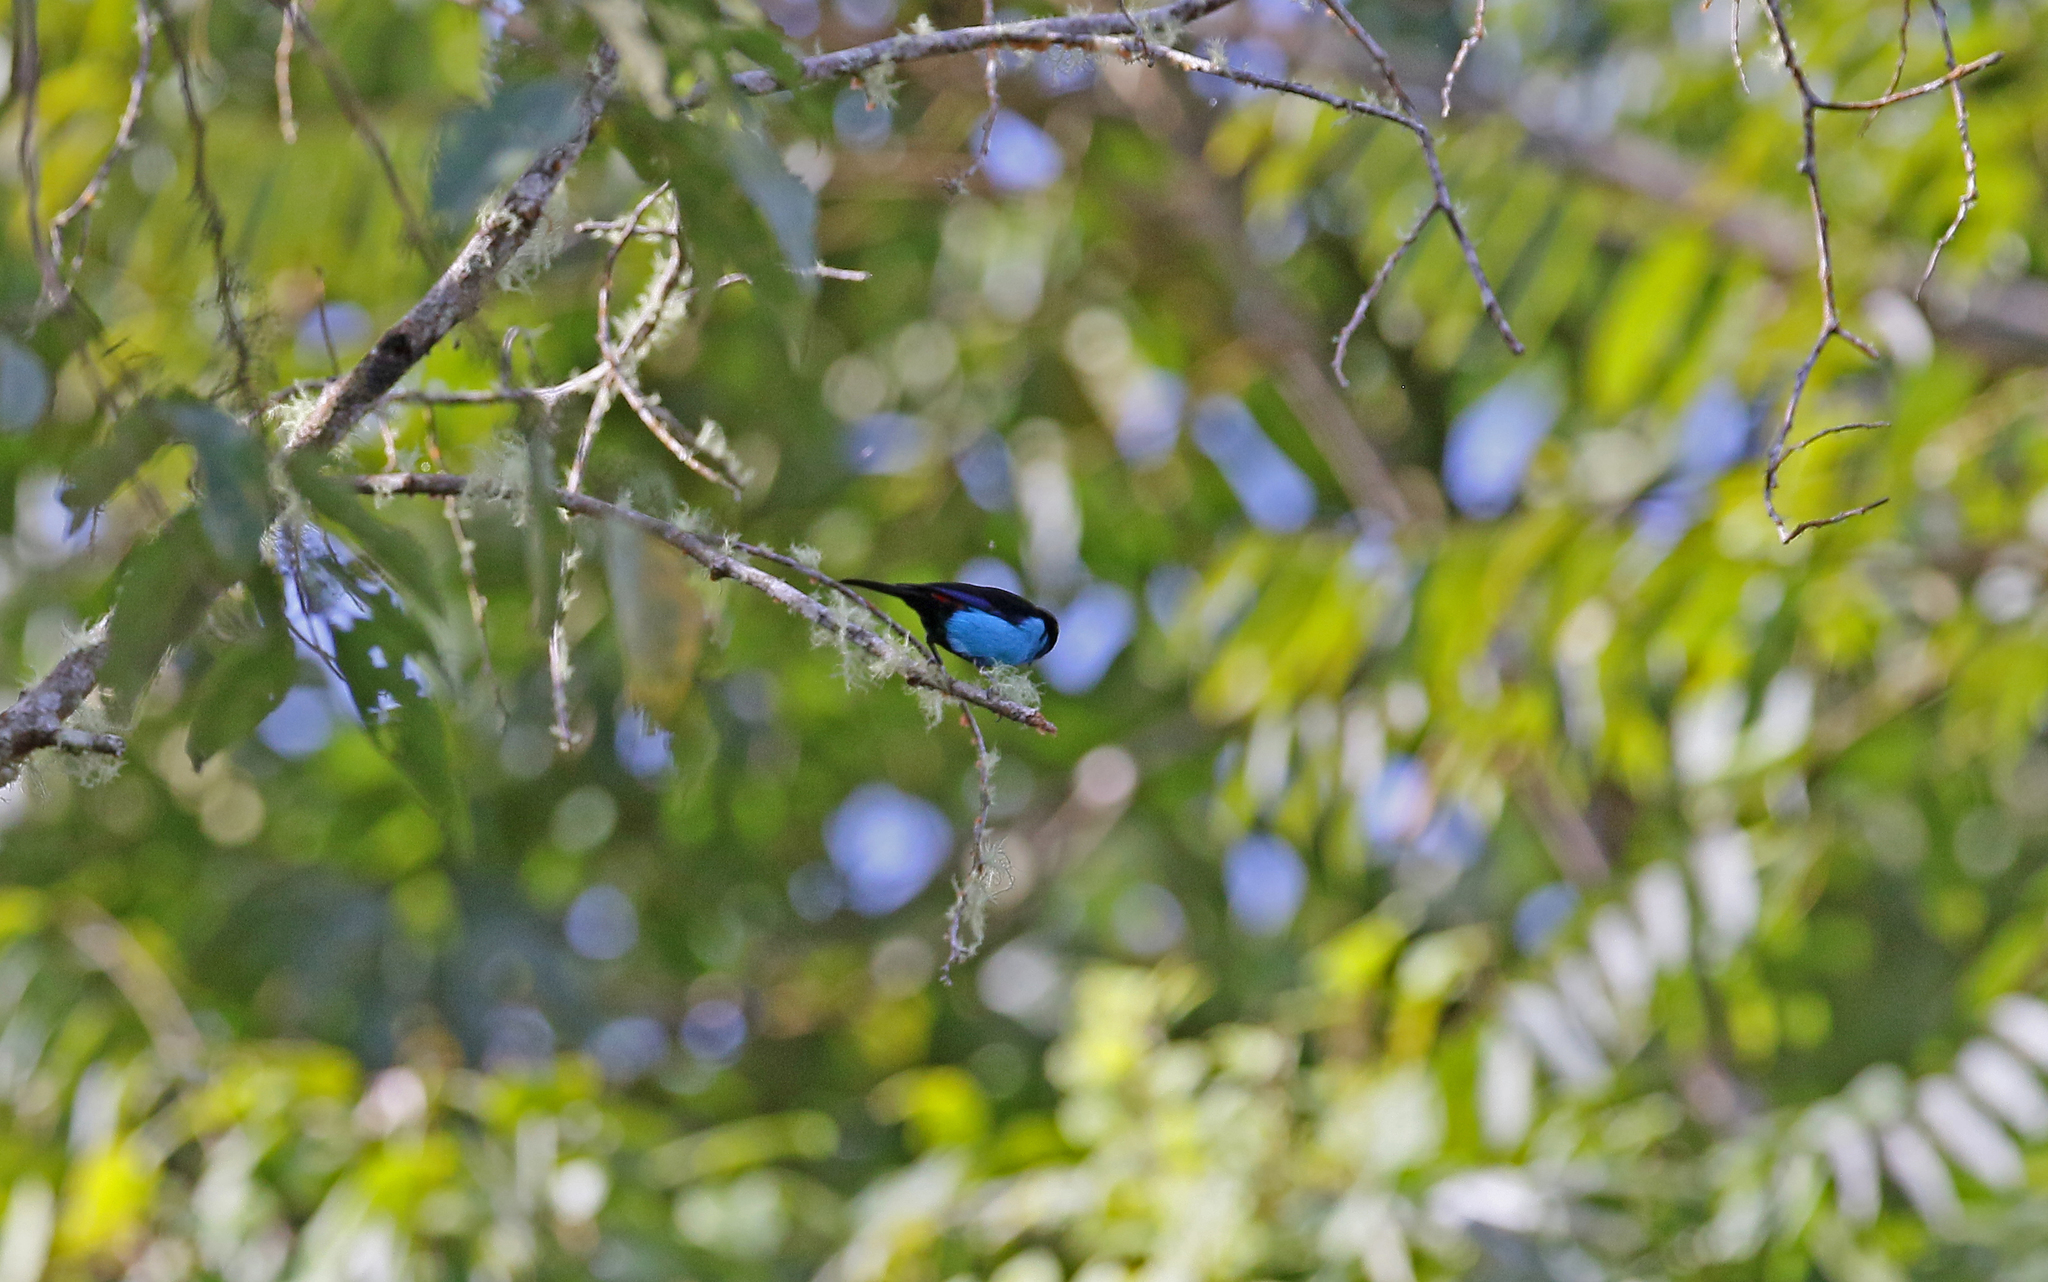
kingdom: Animalia
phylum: Chordata
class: Aves
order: Passeriformes
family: Thraupidae
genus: Tangara
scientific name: Tangara chilensis
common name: Paradise tanager
